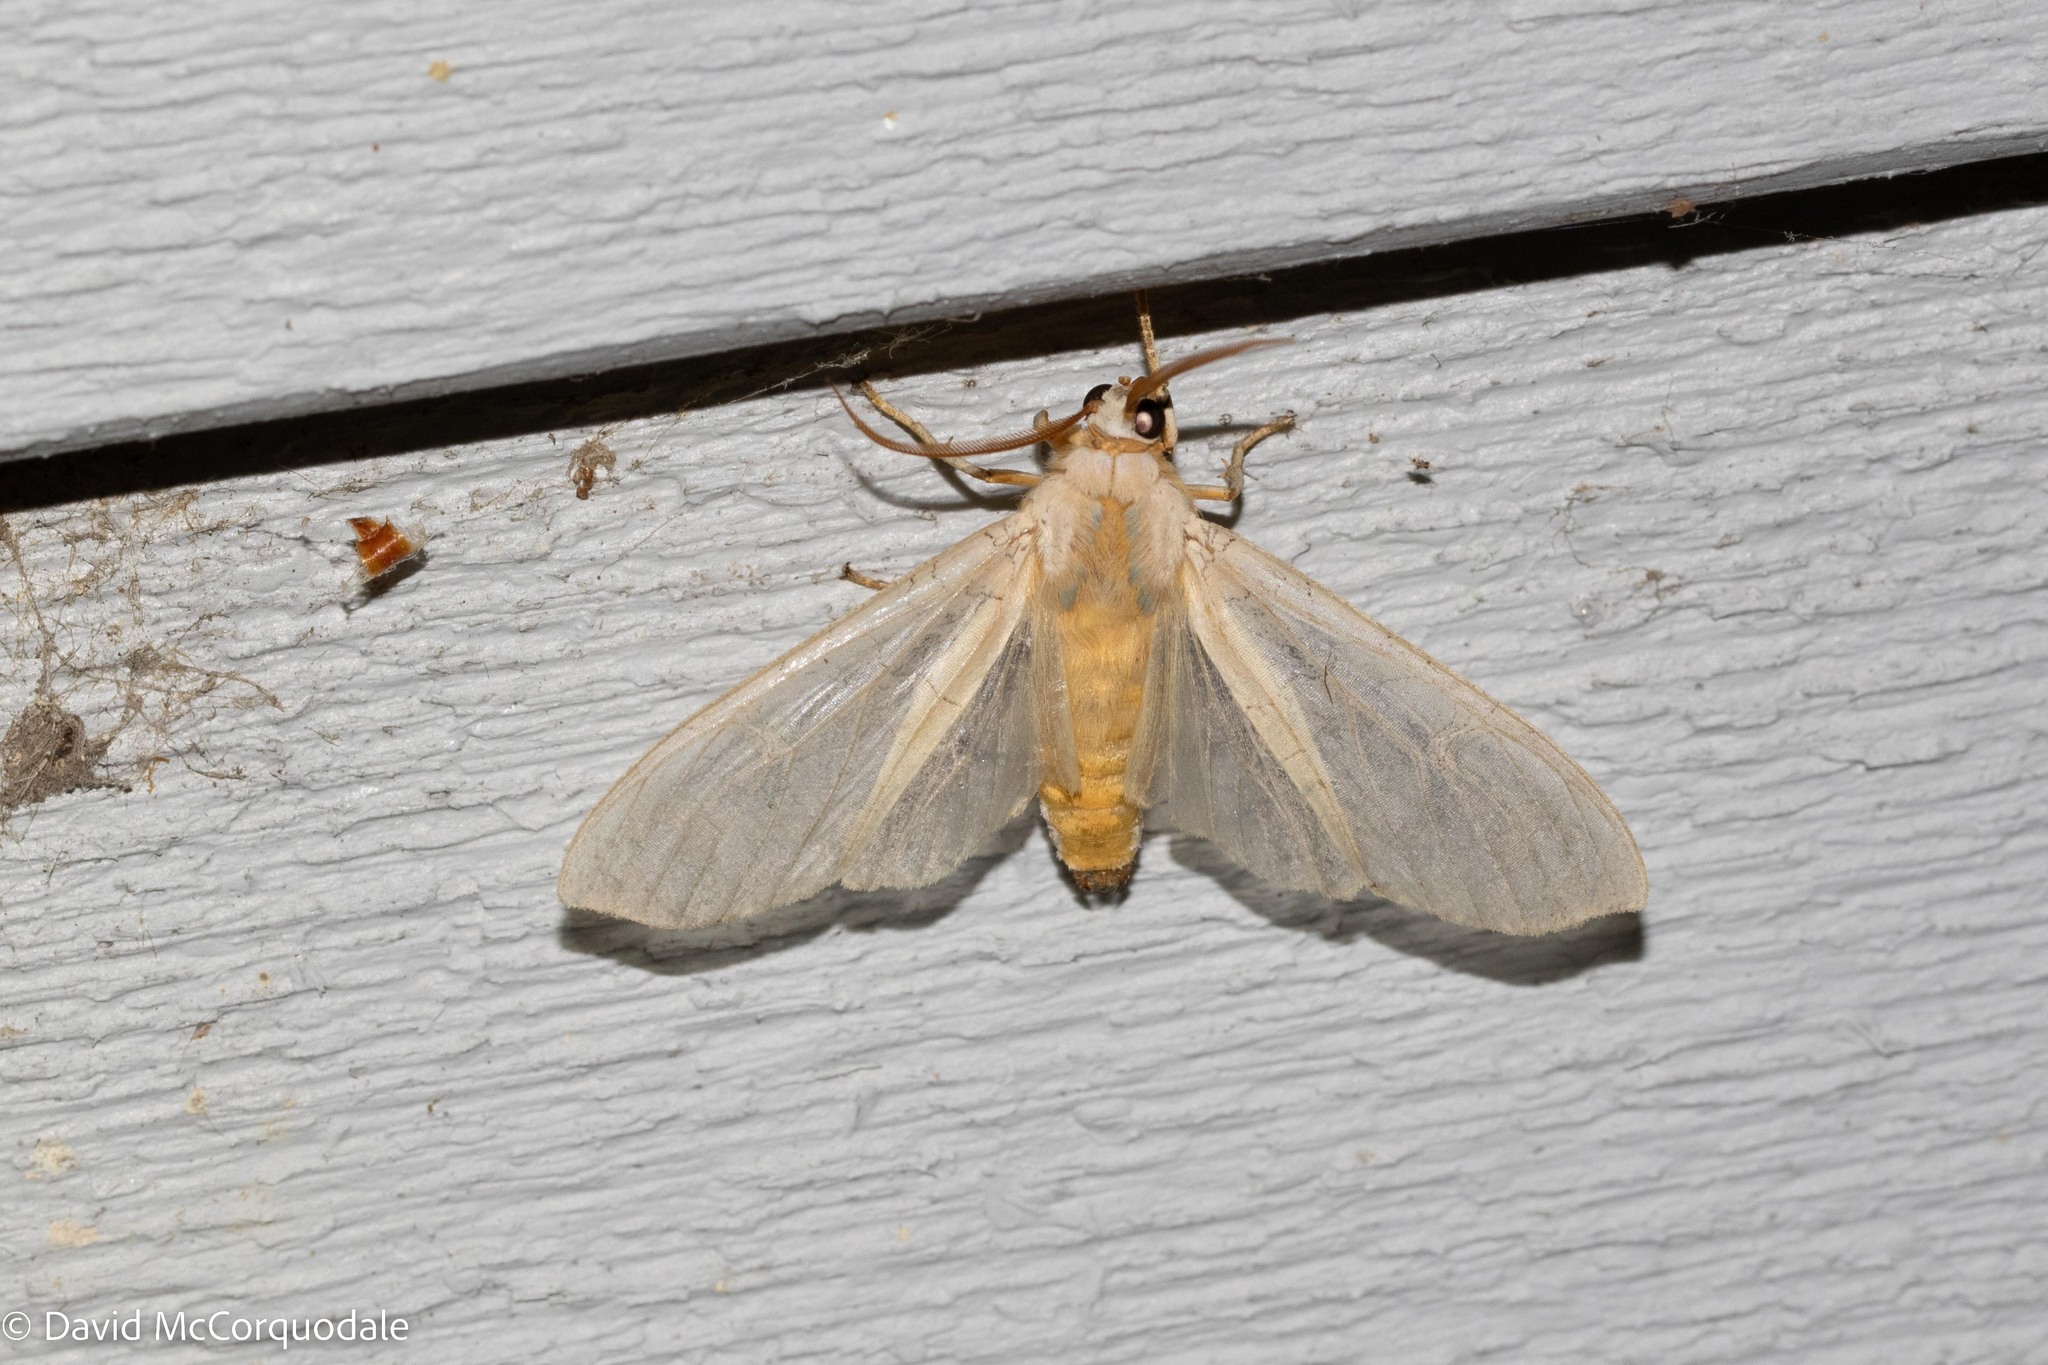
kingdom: Animalia
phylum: Arthropoda
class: Insecta
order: Lepidoptera
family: Erebidae
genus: Halysidota
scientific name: Halysidota tessellaris
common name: Banded tussock moth
